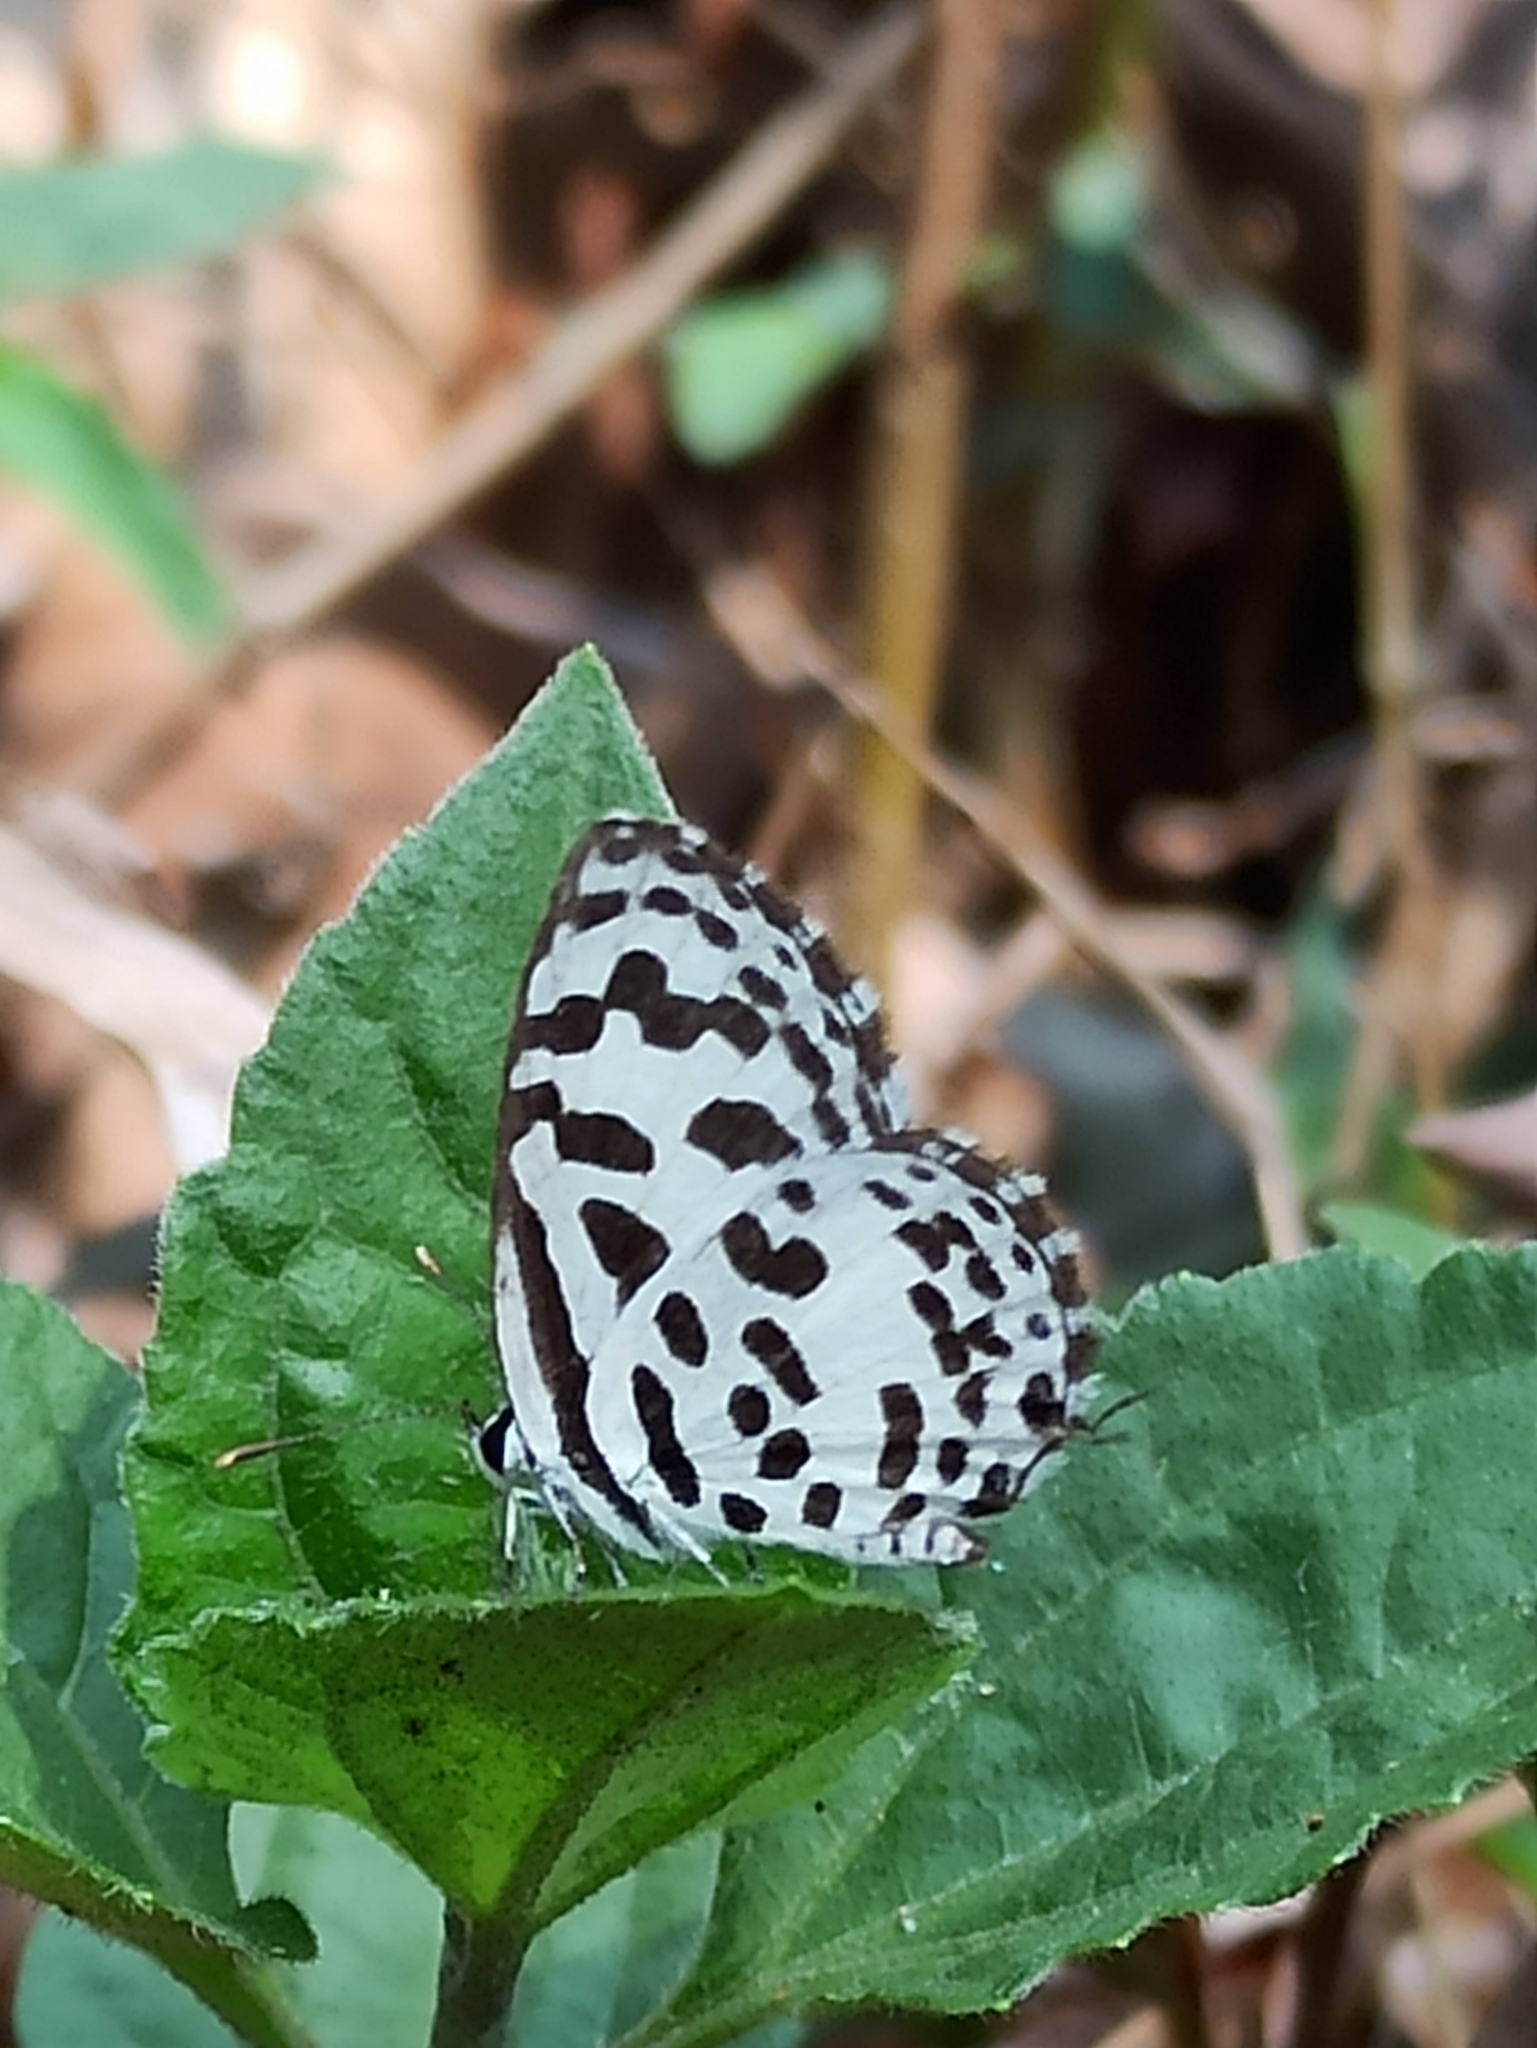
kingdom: Animalia
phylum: Arthropoda
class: Insecta
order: Lepidoptera
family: Lycaenidae
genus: Castalius
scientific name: Castalius rosimon
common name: Common pierrot
